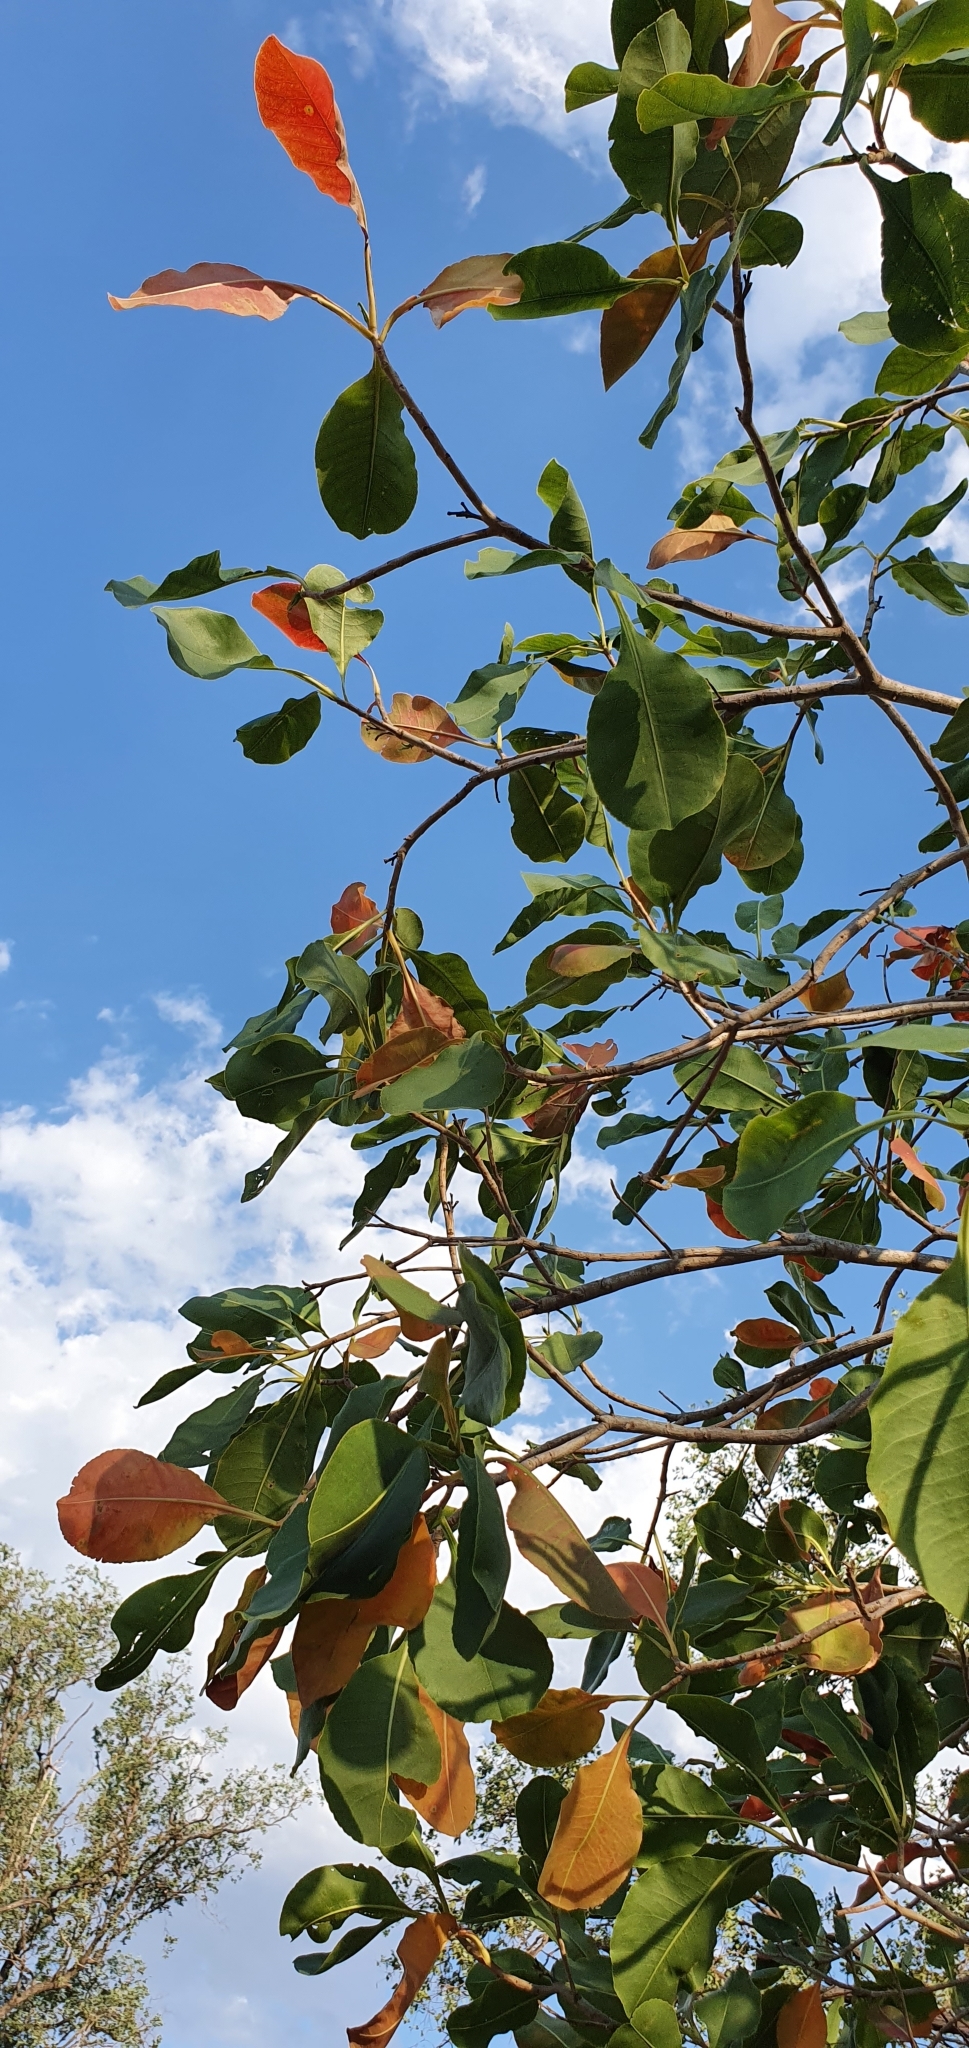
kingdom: Plantae
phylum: Tracheophyta
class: Magnoliopsida
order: Ericales
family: Lecythidaceae
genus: Planchonia
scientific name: Planchonia careya
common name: Cockatoo-apple
